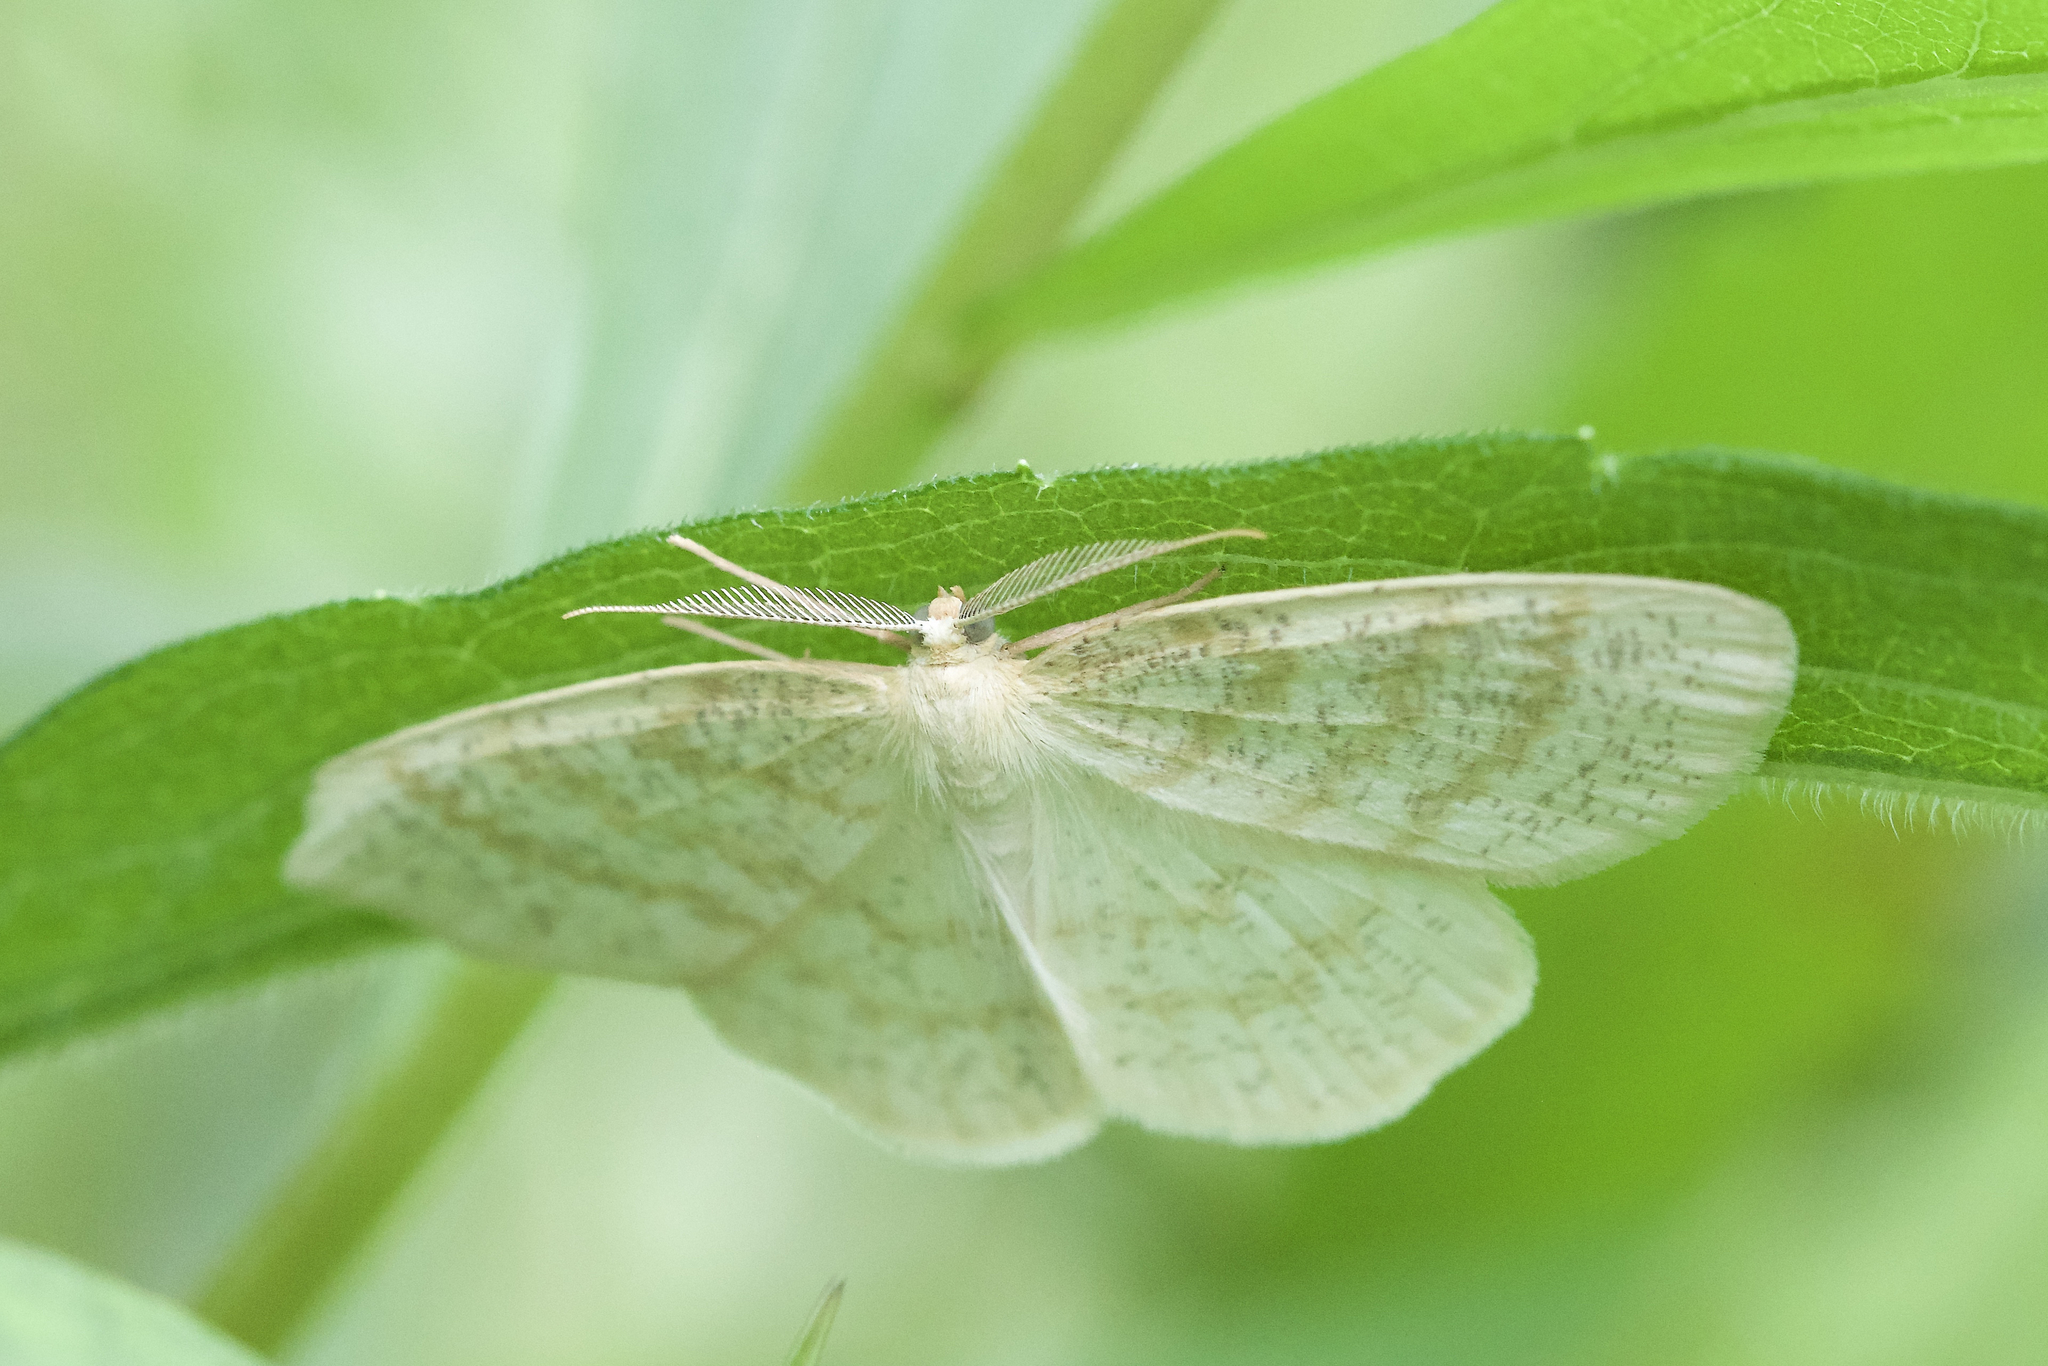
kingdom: Animalia
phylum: Arthropoda
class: Insecta
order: Lepidoptera
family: Geometridae
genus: Cabera
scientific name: Cabera erythemaria
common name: Yellow-dusted cream moth
